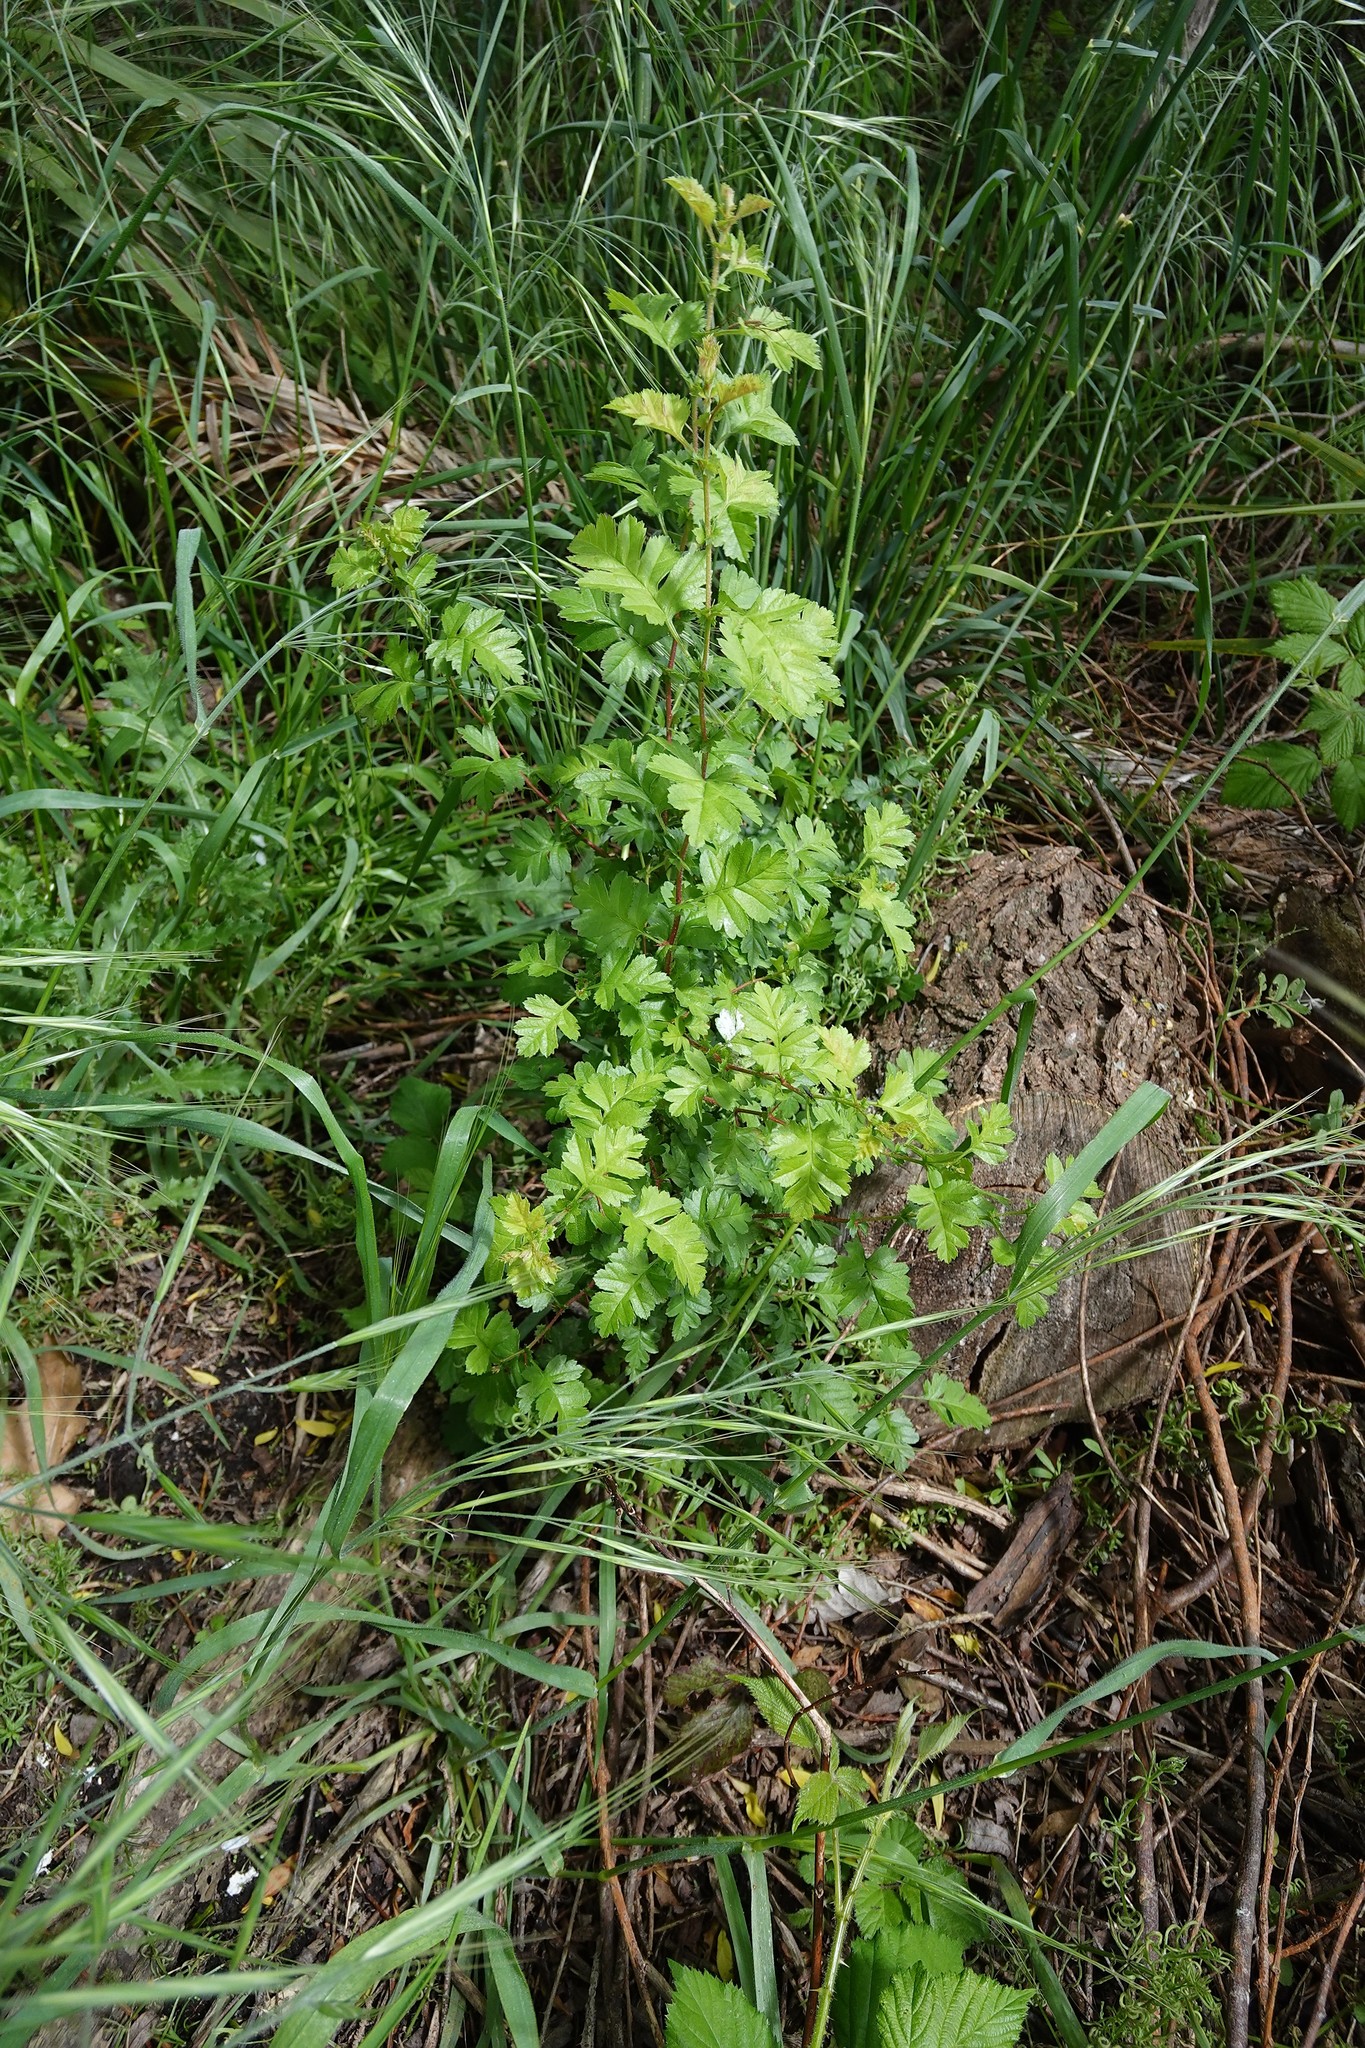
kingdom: Plantae
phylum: Tracheophyta
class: Magnoliopsida
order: Rosales
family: Rosaceae
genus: Crataegus
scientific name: Crataegus monogyna
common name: Hawthorn
